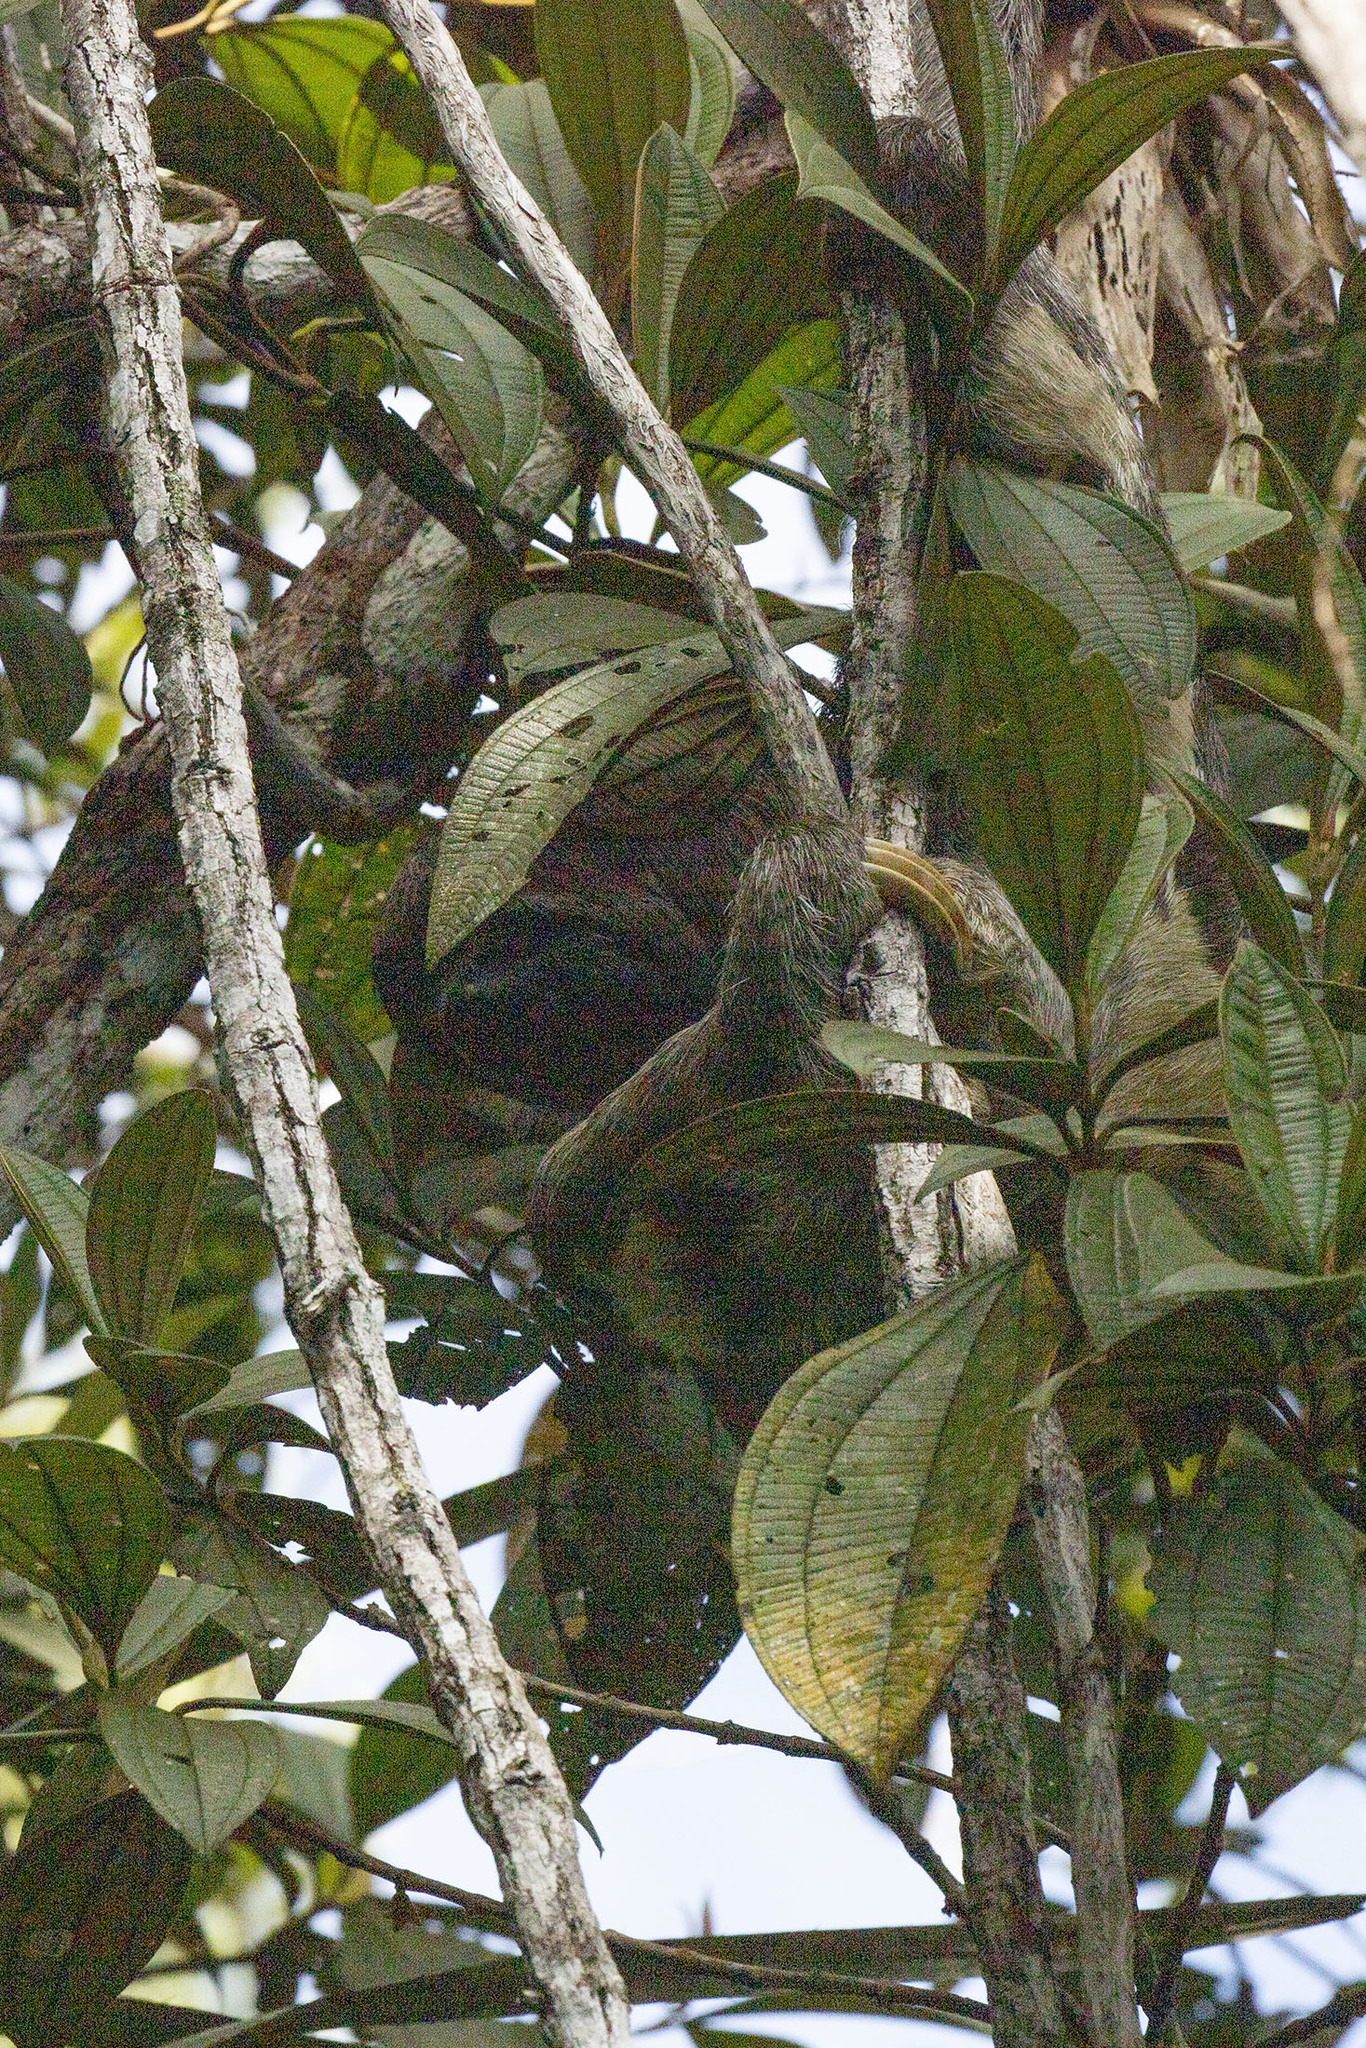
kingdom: Animalia
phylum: Chordata
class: Mammalia
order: Pilosa
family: Bradypodidae
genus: Bradypus
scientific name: Bradypus variegatus
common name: Brown-throated three-toed sloth
